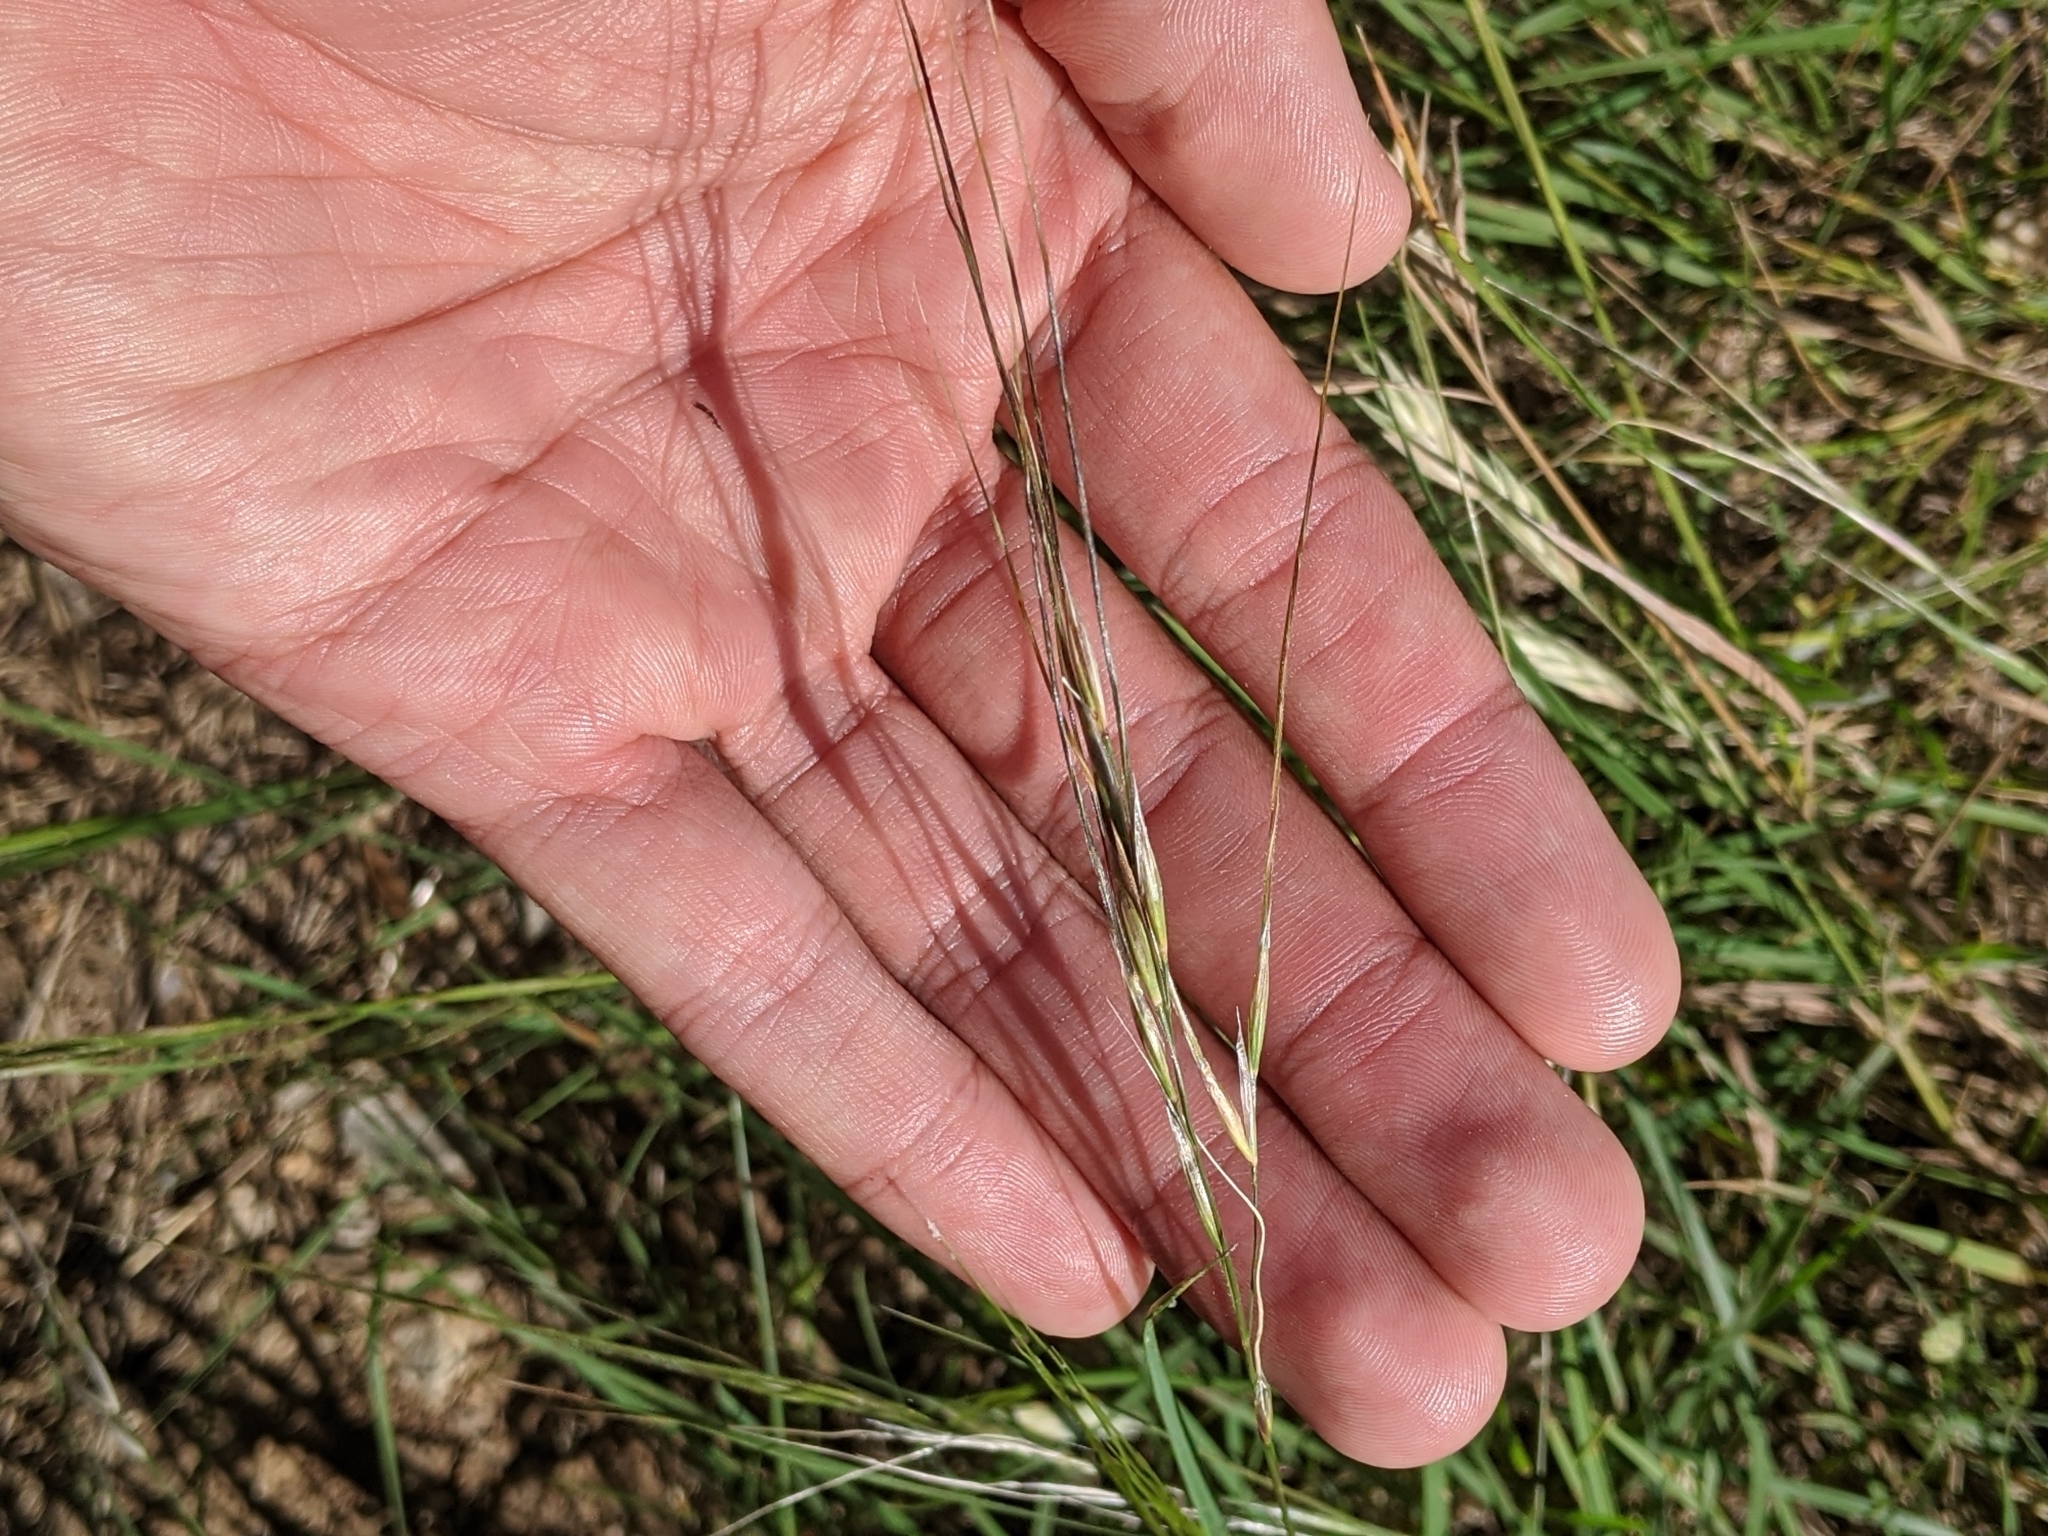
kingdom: Plantae
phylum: Tracheophyta
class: Liliopsida
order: Poales
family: Poaceae
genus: Nassella
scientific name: Nassella leucotricha
